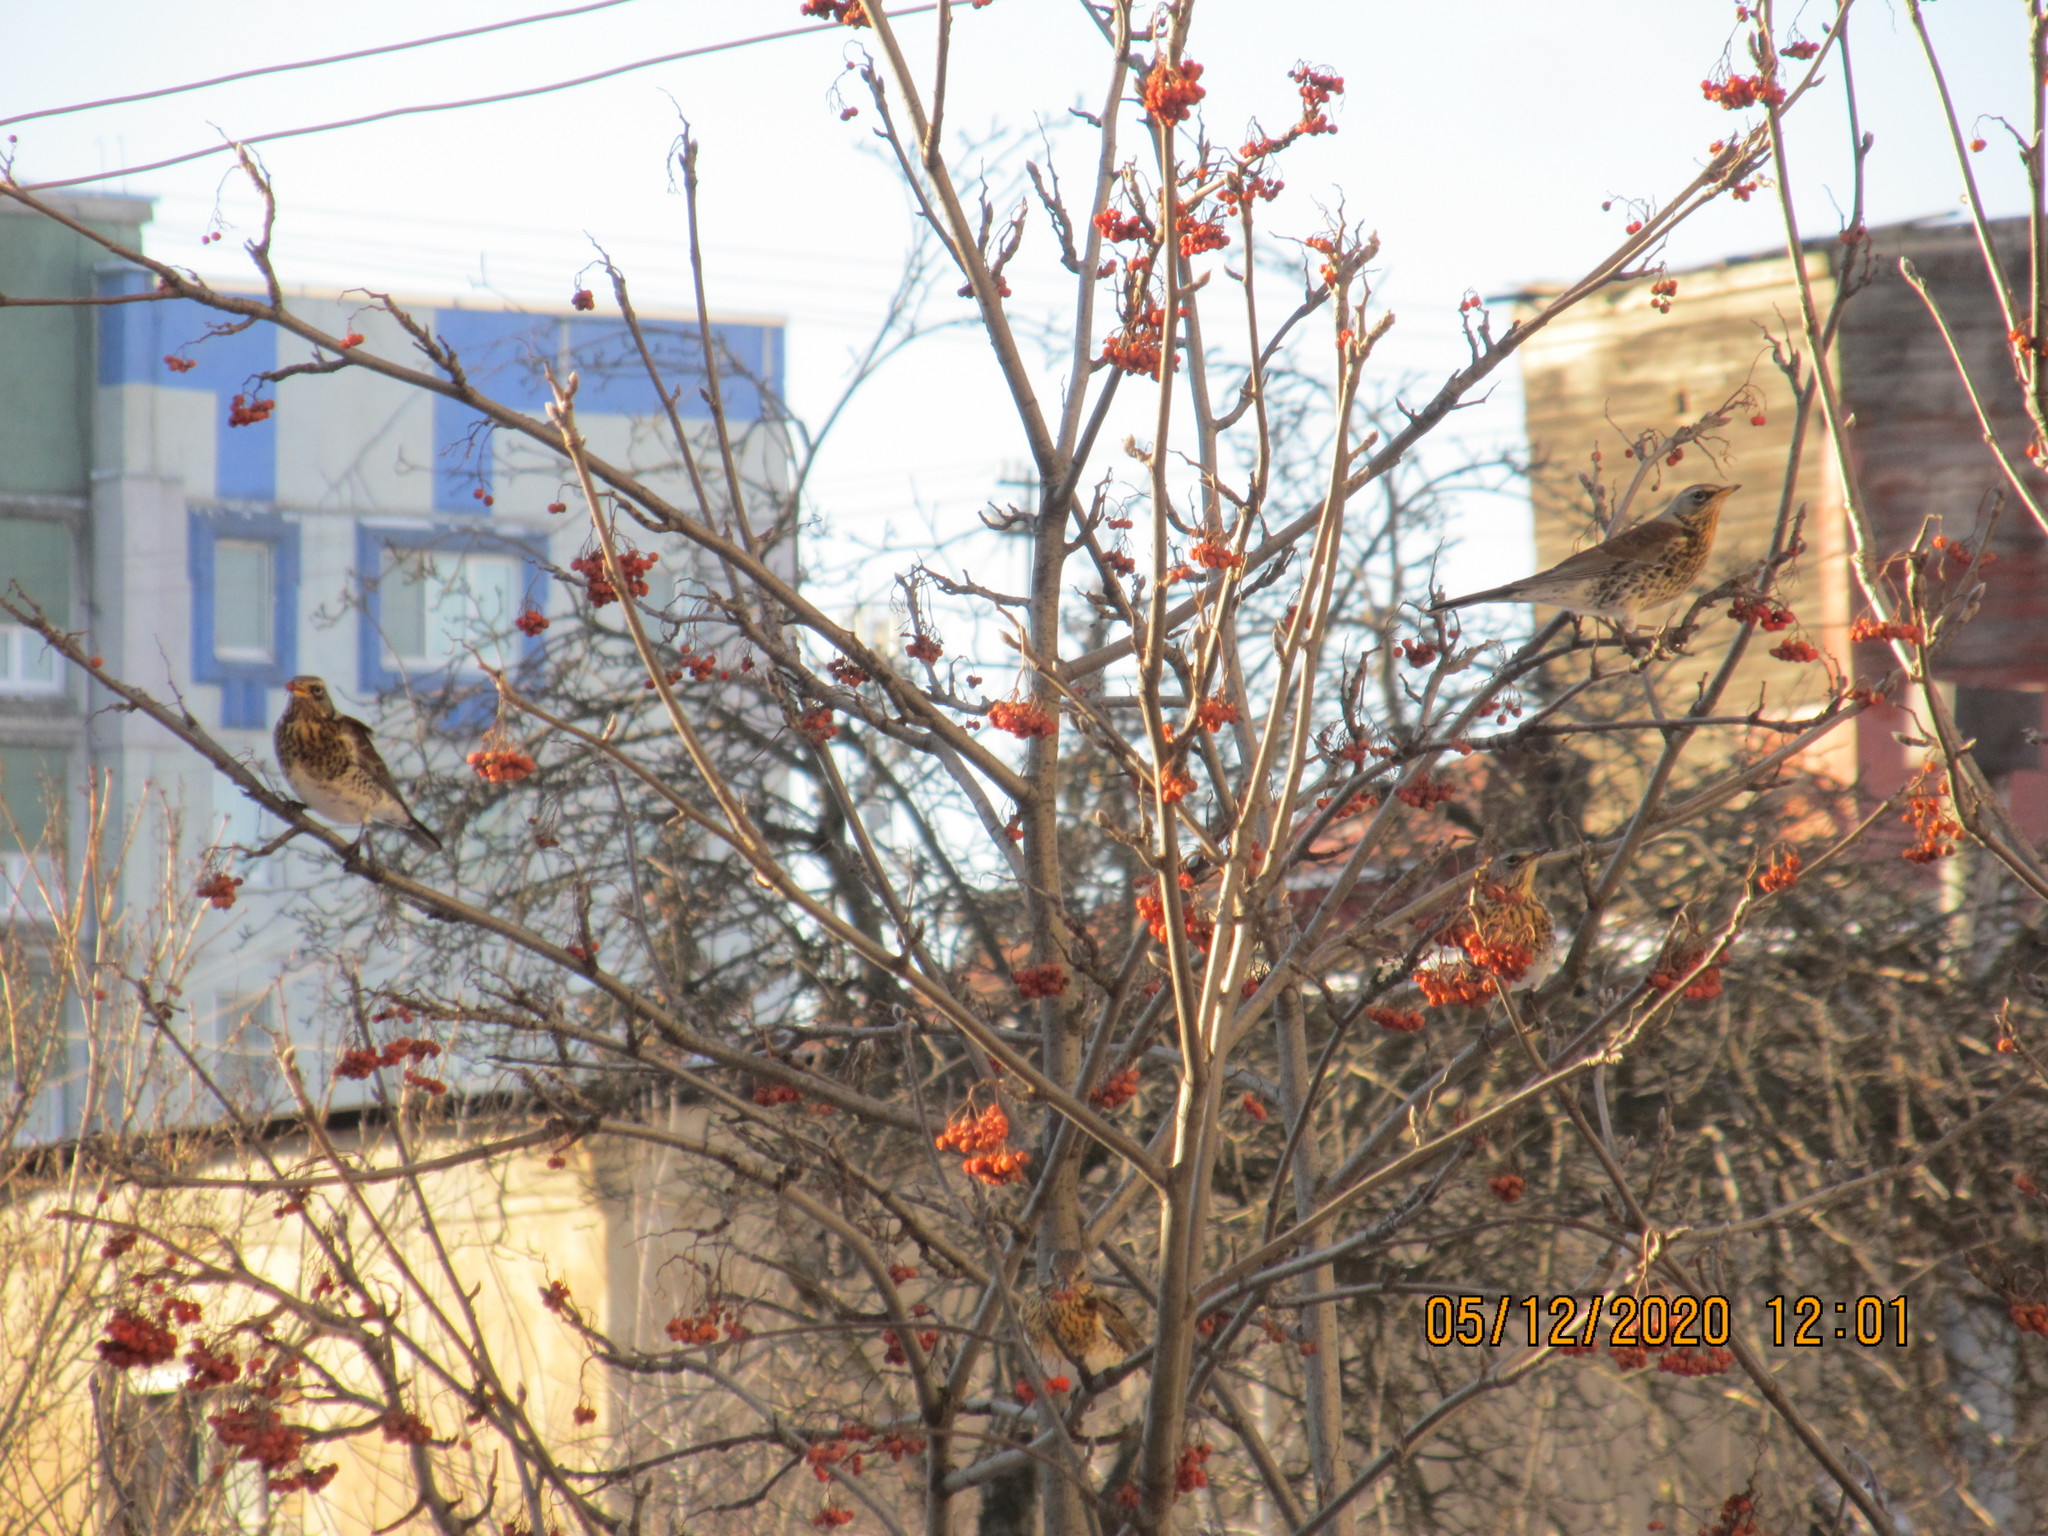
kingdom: Animalia
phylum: Chordata
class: Aves
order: Passeriformes
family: Turdidae
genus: Turdus
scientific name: Turdus pilaris
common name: Fieldfare
